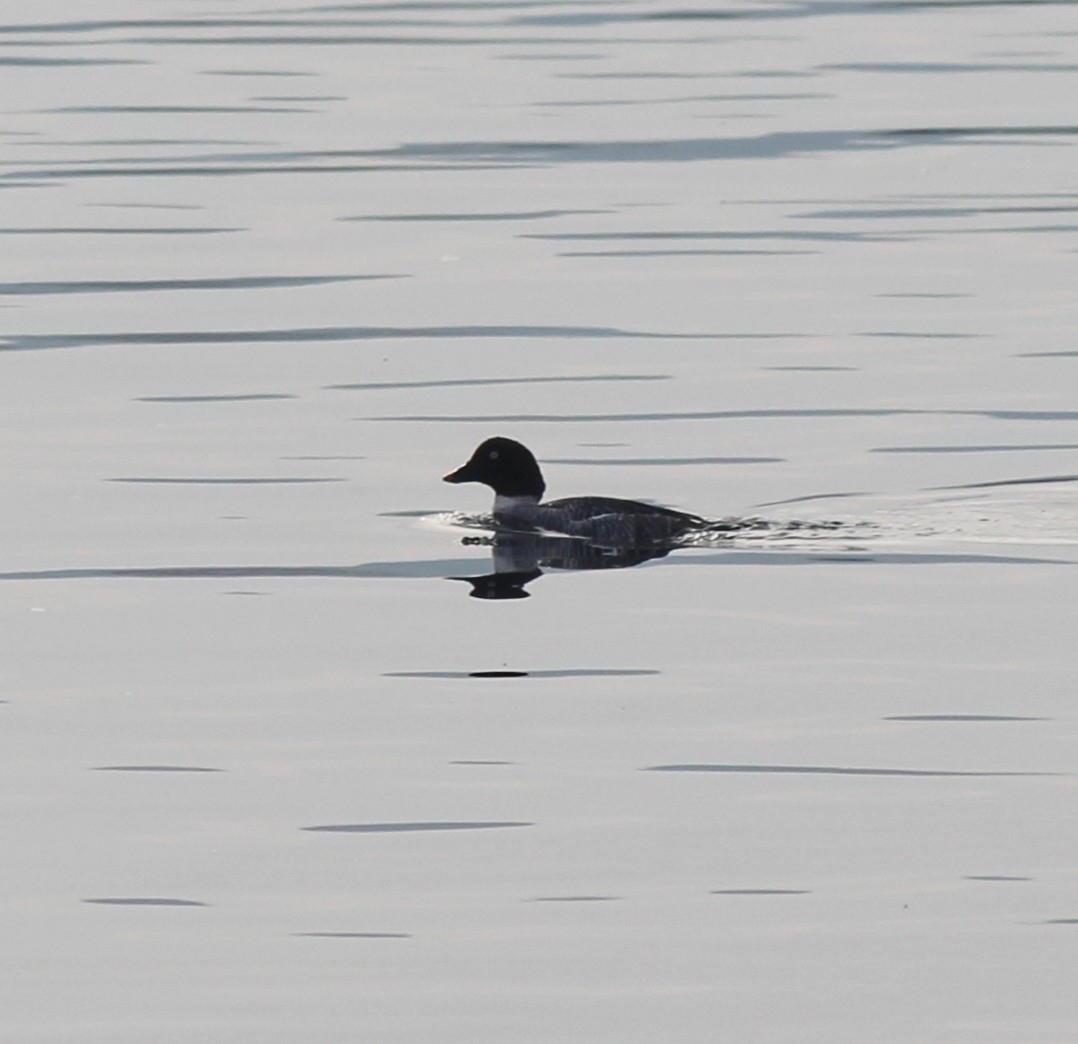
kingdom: Animalia
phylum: Chordata
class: Aves
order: Anseriformes
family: Anatidae
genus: Bucephala
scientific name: Bucephala clangula
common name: Common goldeneye
